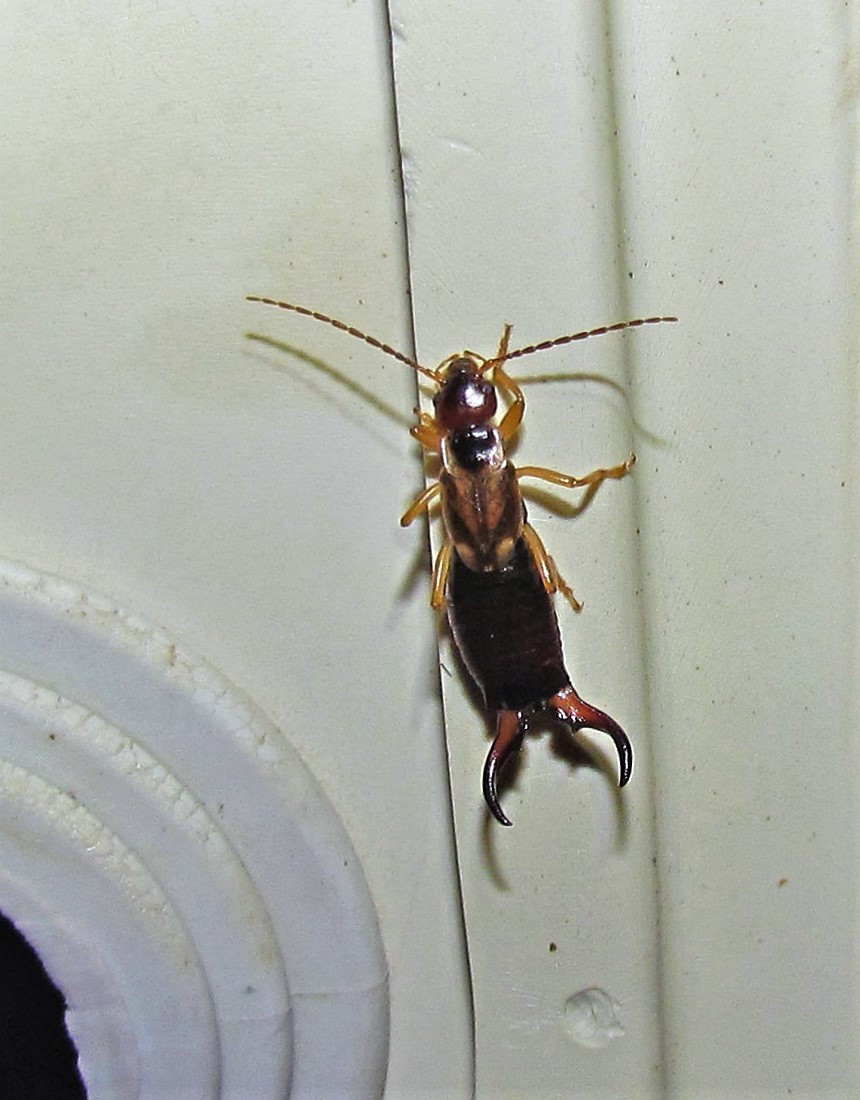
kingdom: Animalia
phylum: Arthropoda
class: Insecta
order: Dermaptera
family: Forficulidae
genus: Forficula
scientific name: Forficula
